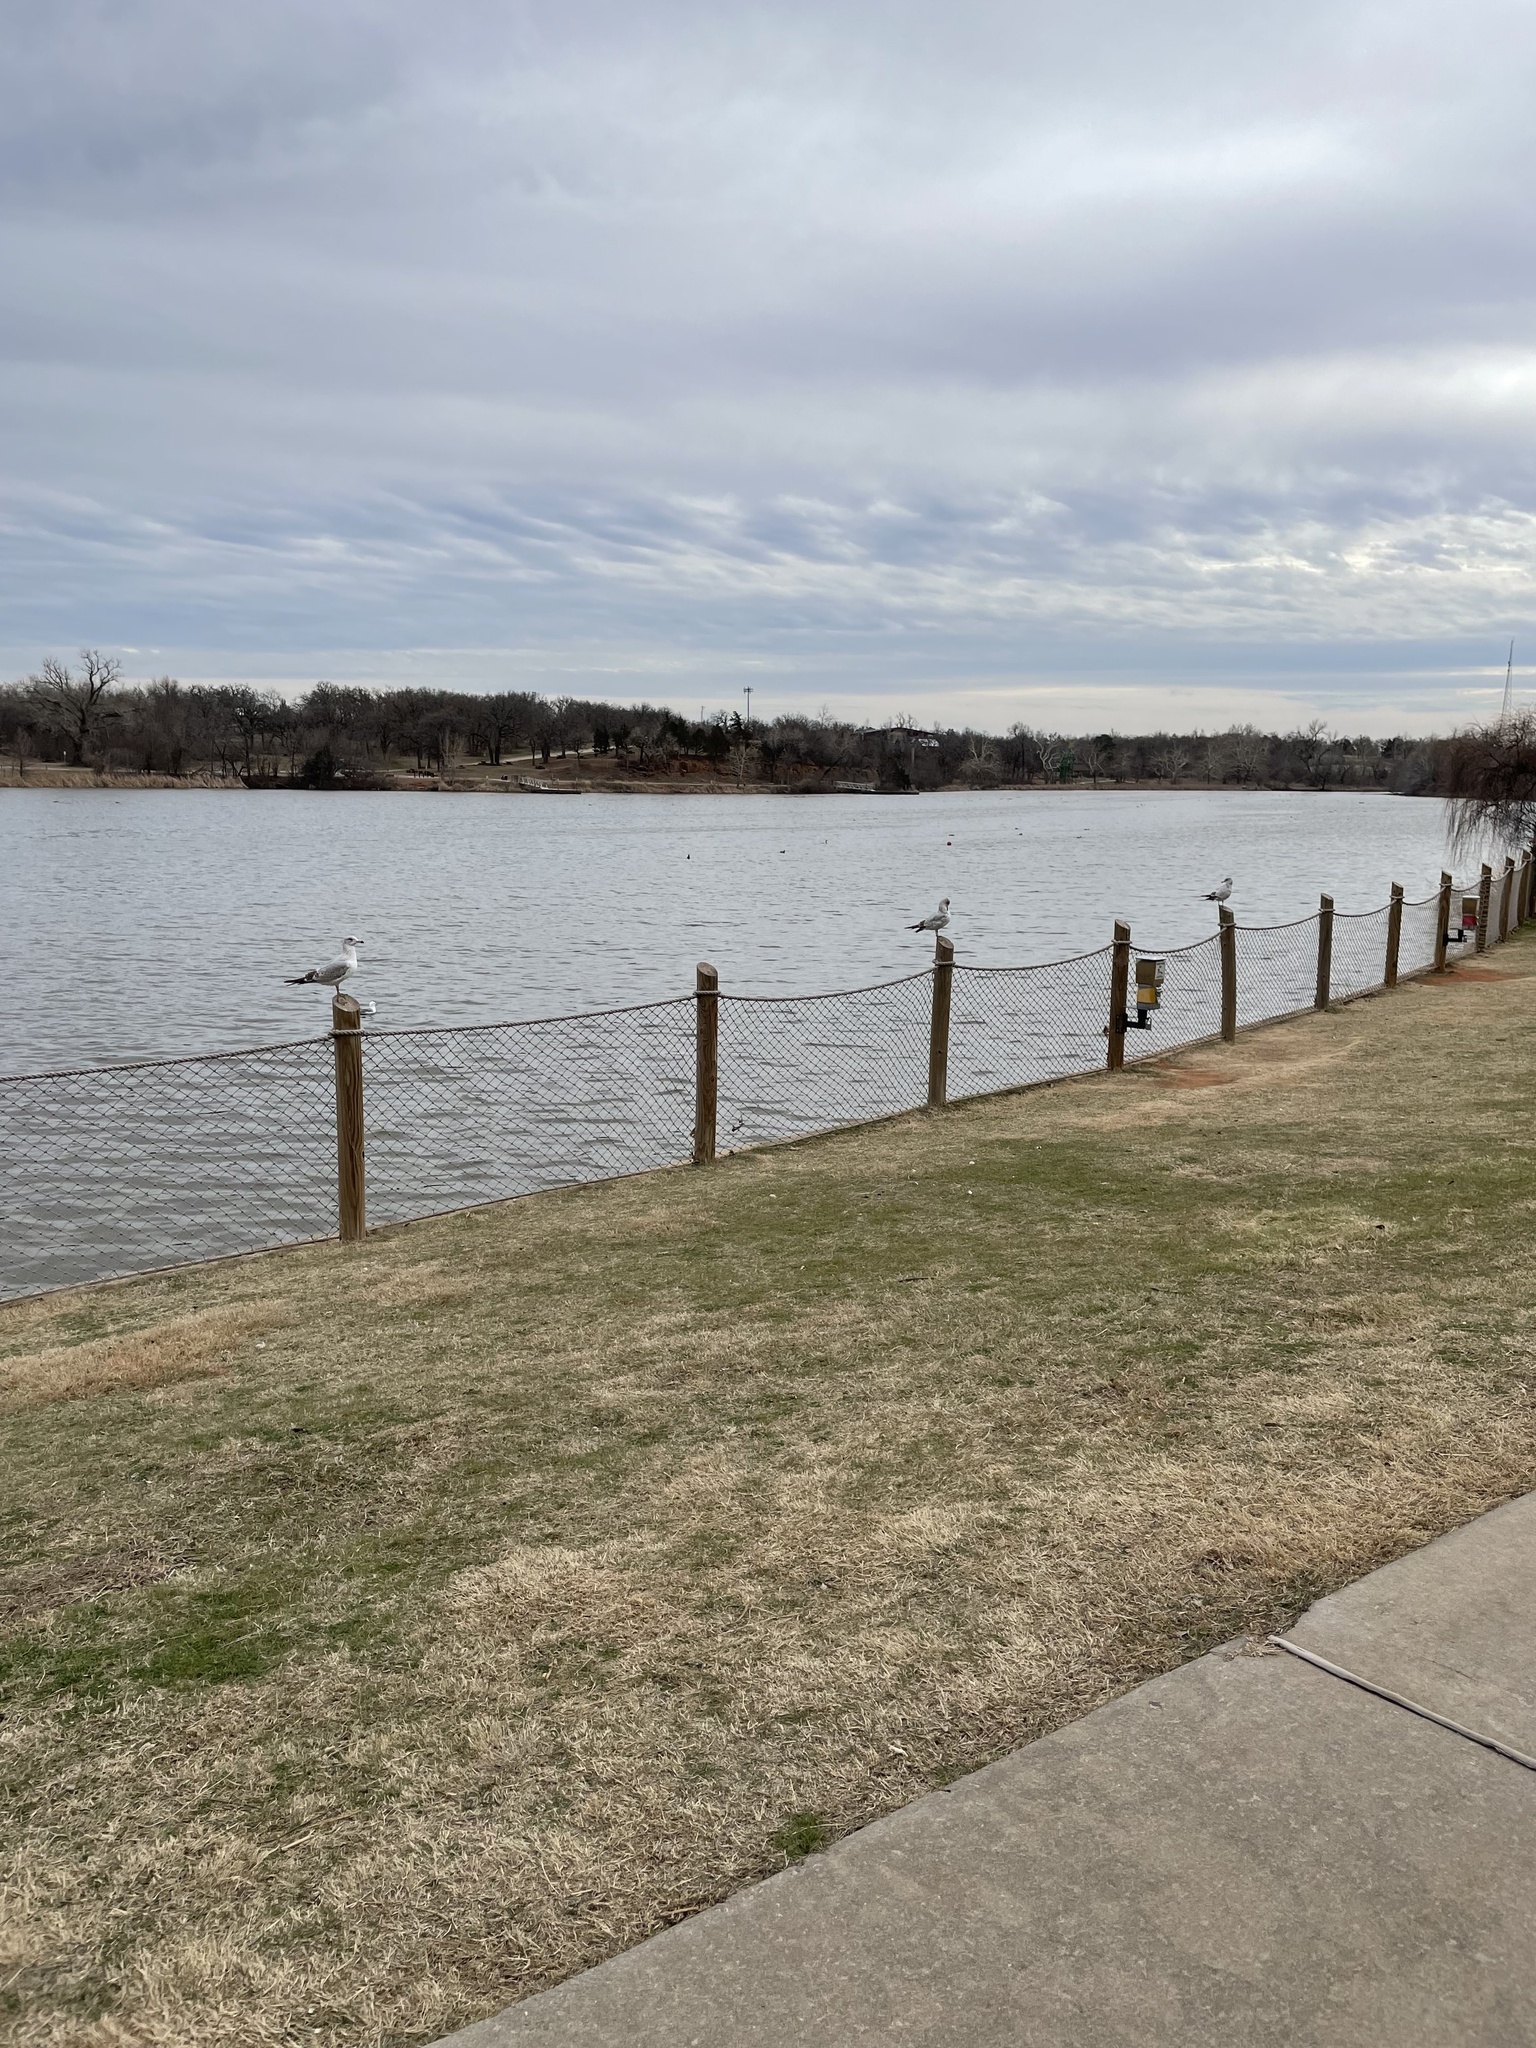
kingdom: Animalia
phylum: Chordata
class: Aves
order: Charadriiformes
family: Laridae
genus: Larus
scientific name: Larus delawarensis
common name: Ring-billed gull
